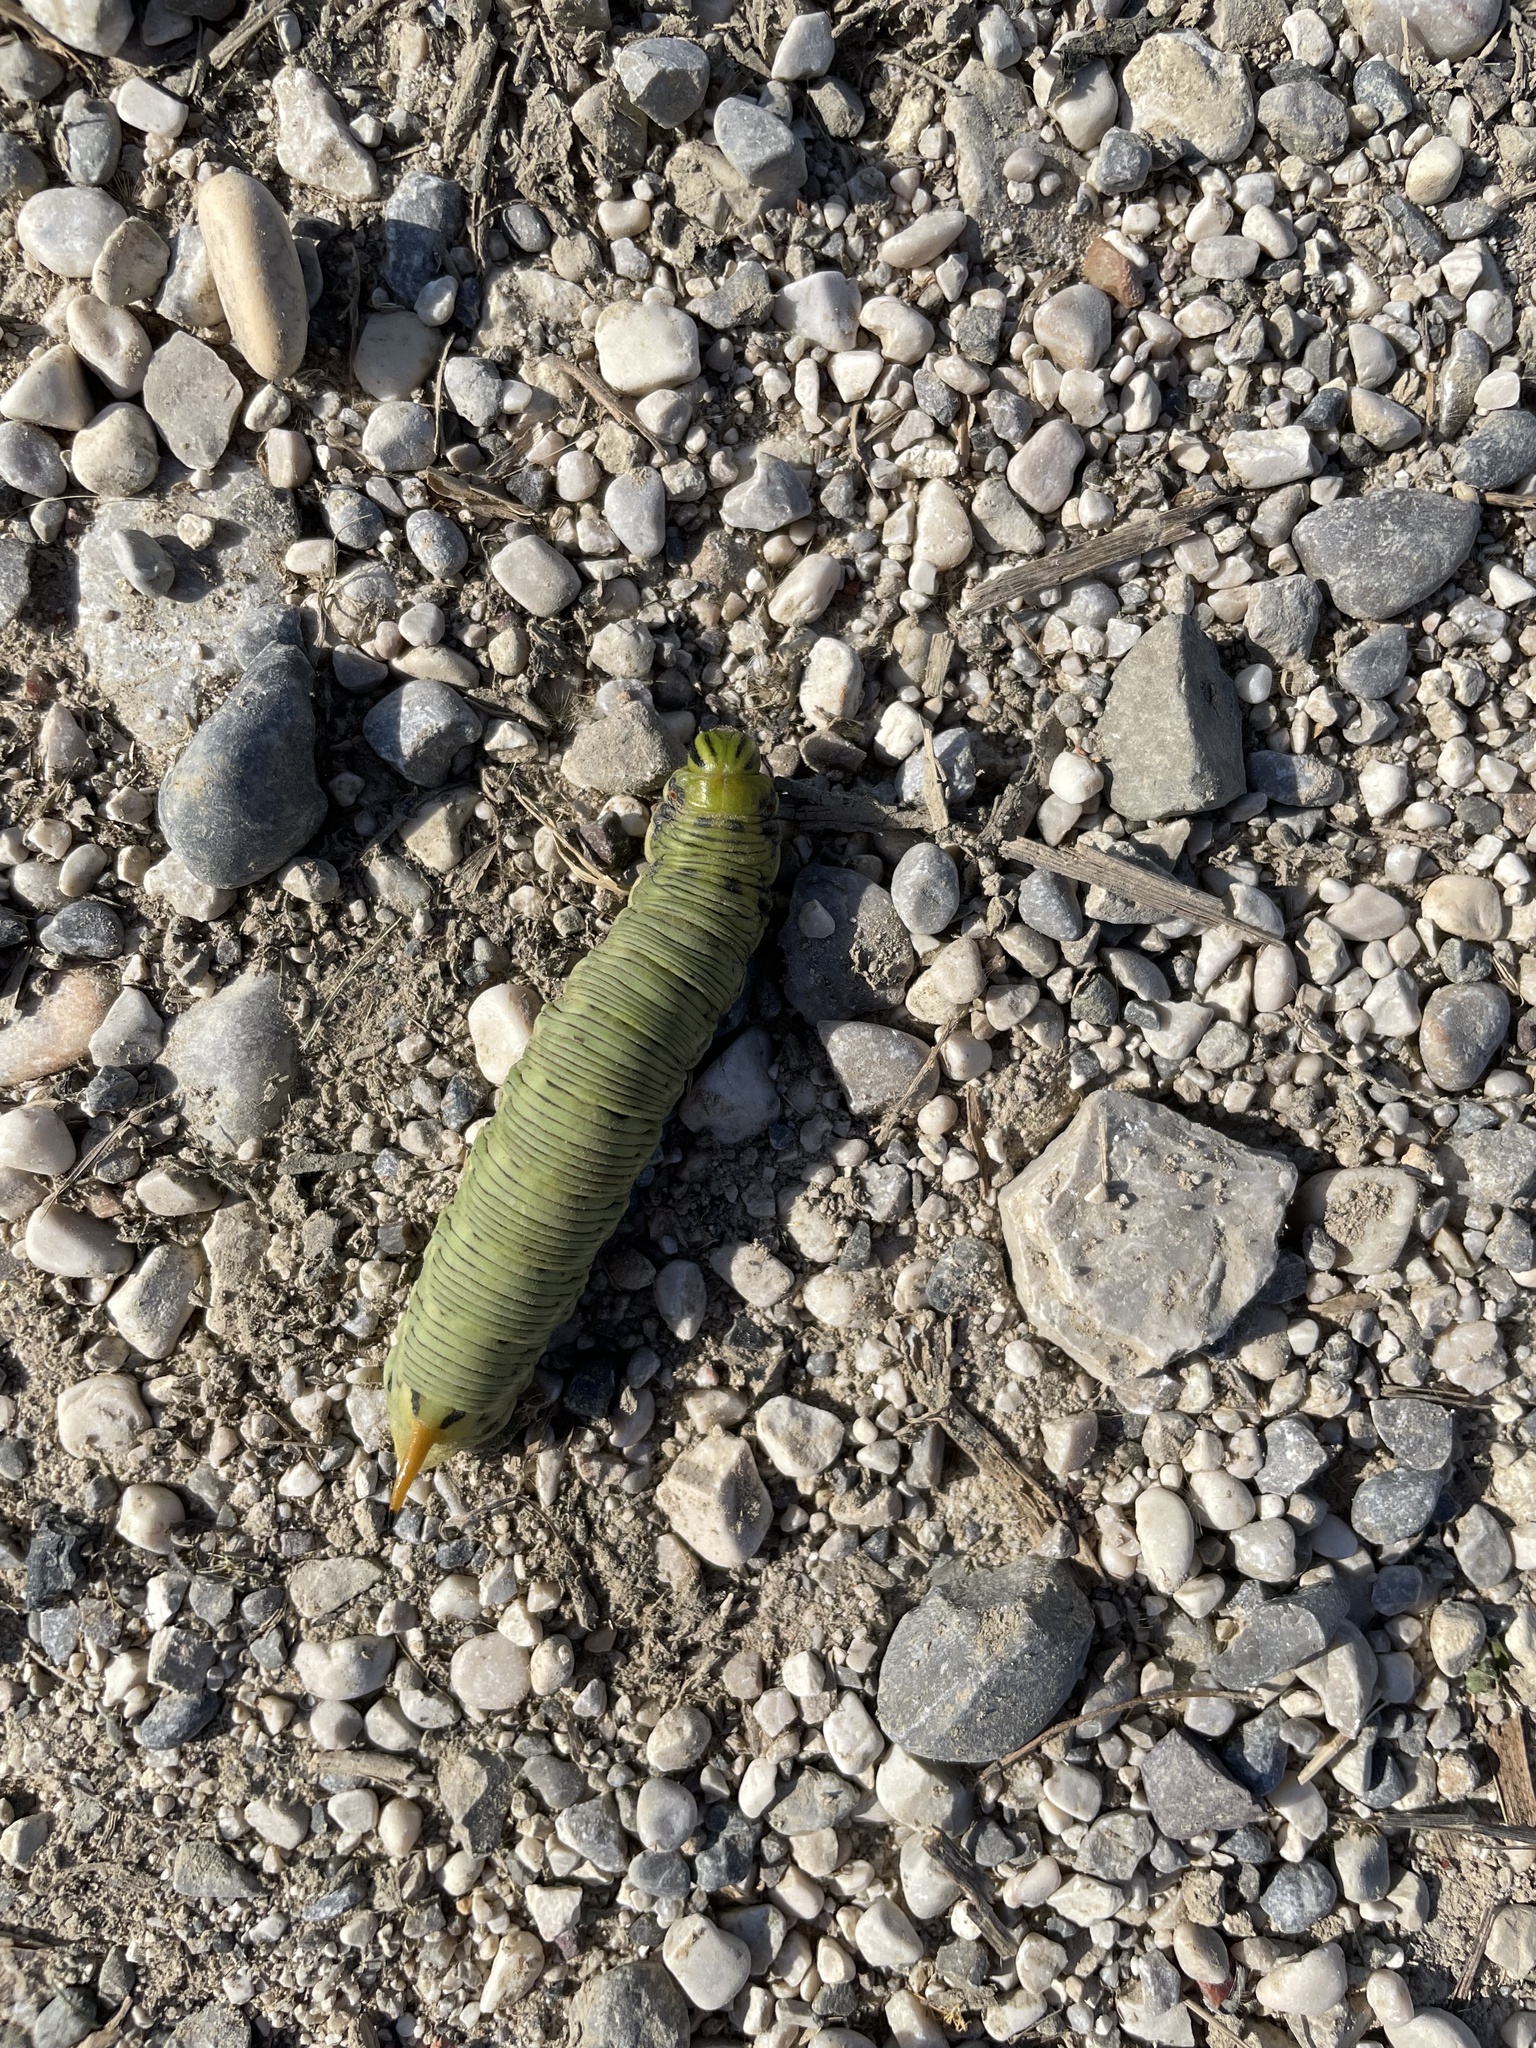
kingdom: Animalia
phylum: Arthropoda
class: Insecta
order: Lepidoptera
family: Sphingidae
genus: Agrius
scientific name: Agrius convolvuli
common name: Convolvulus hawkmoth
